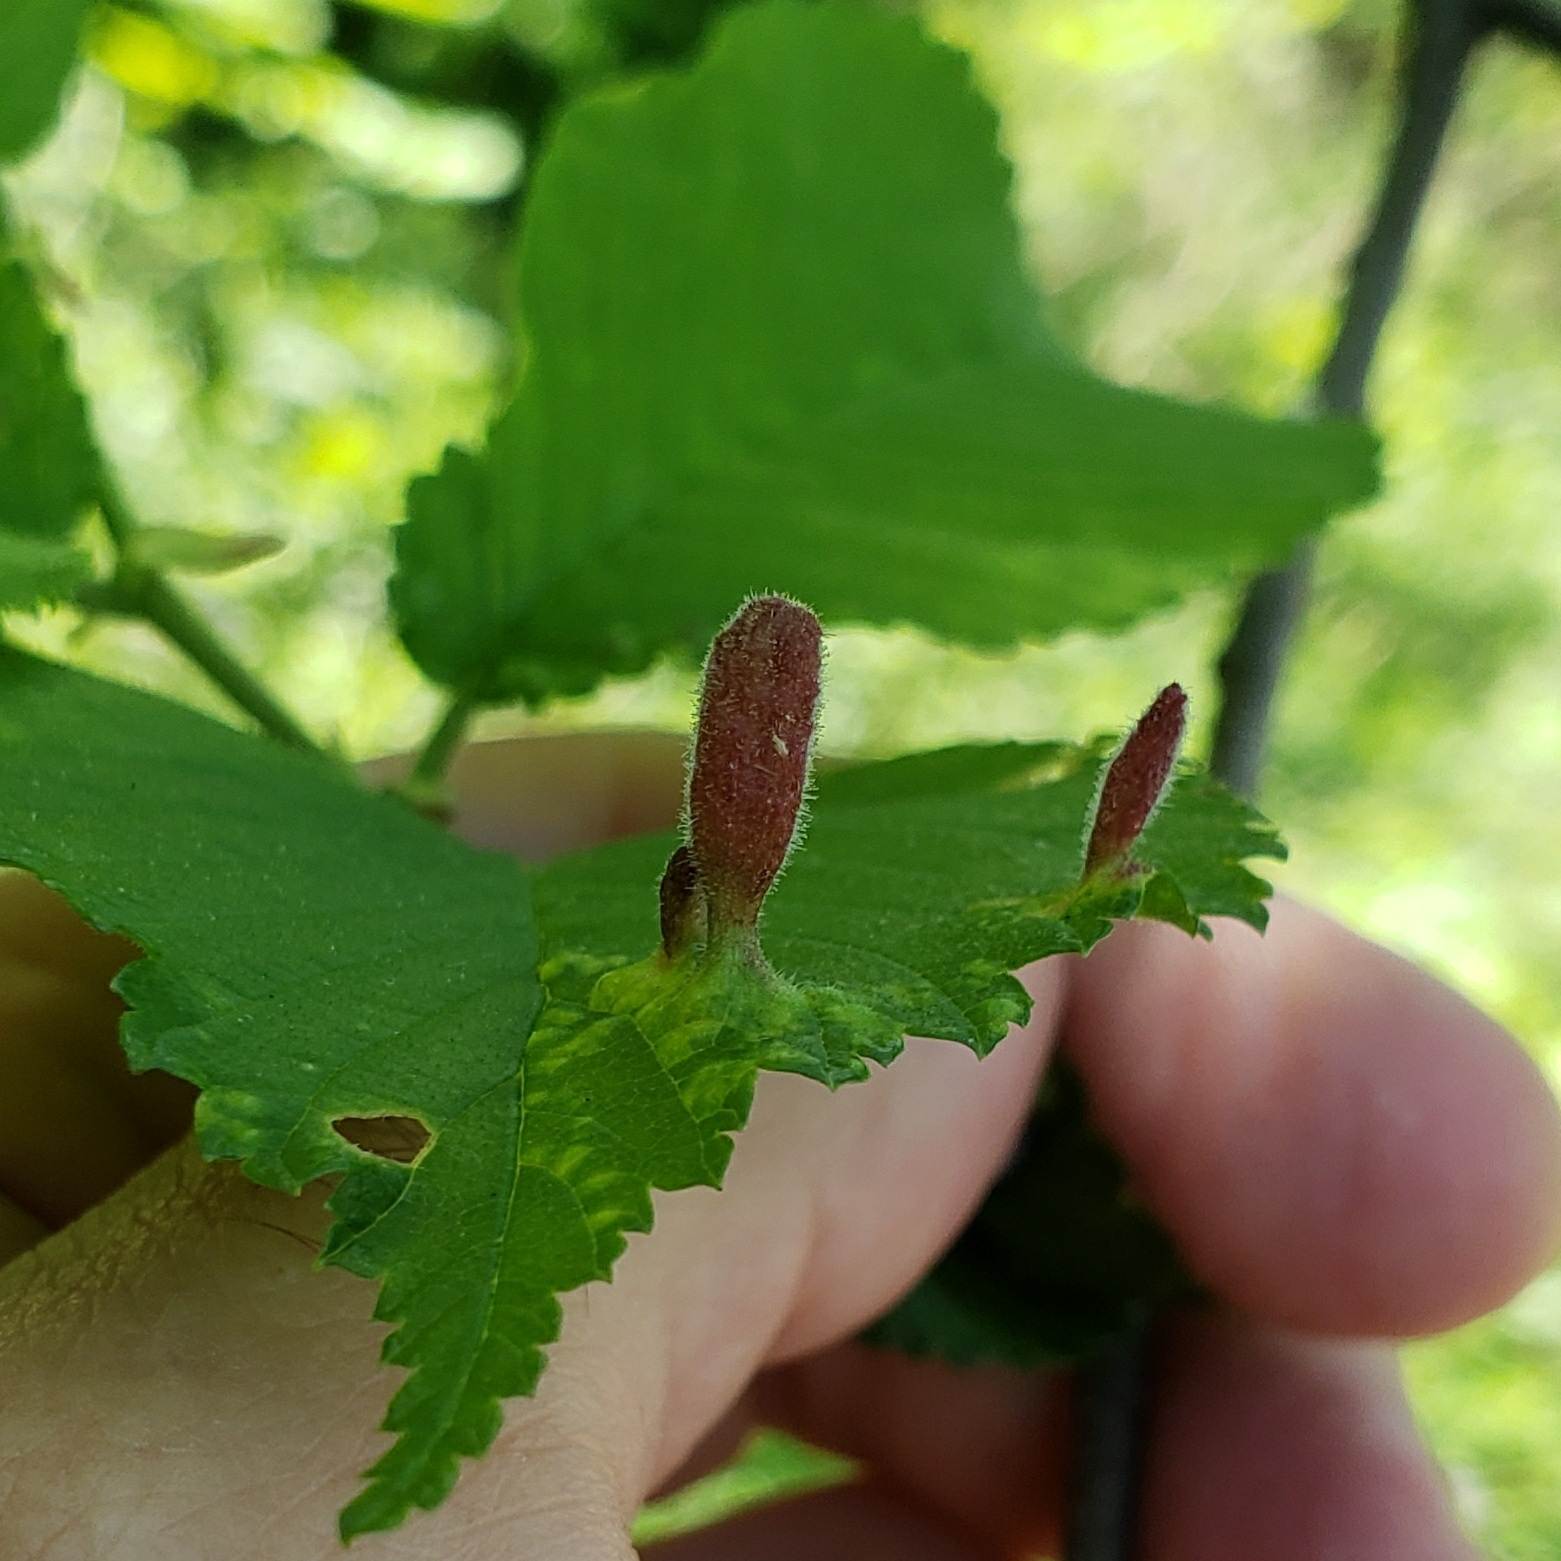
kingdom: Animalia
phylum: Arthropoda
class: Insecta
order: Hemiptera
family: Aphididae
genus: Tetraneura
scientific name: Tetraneura nigriabdominalis
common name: Aphid
